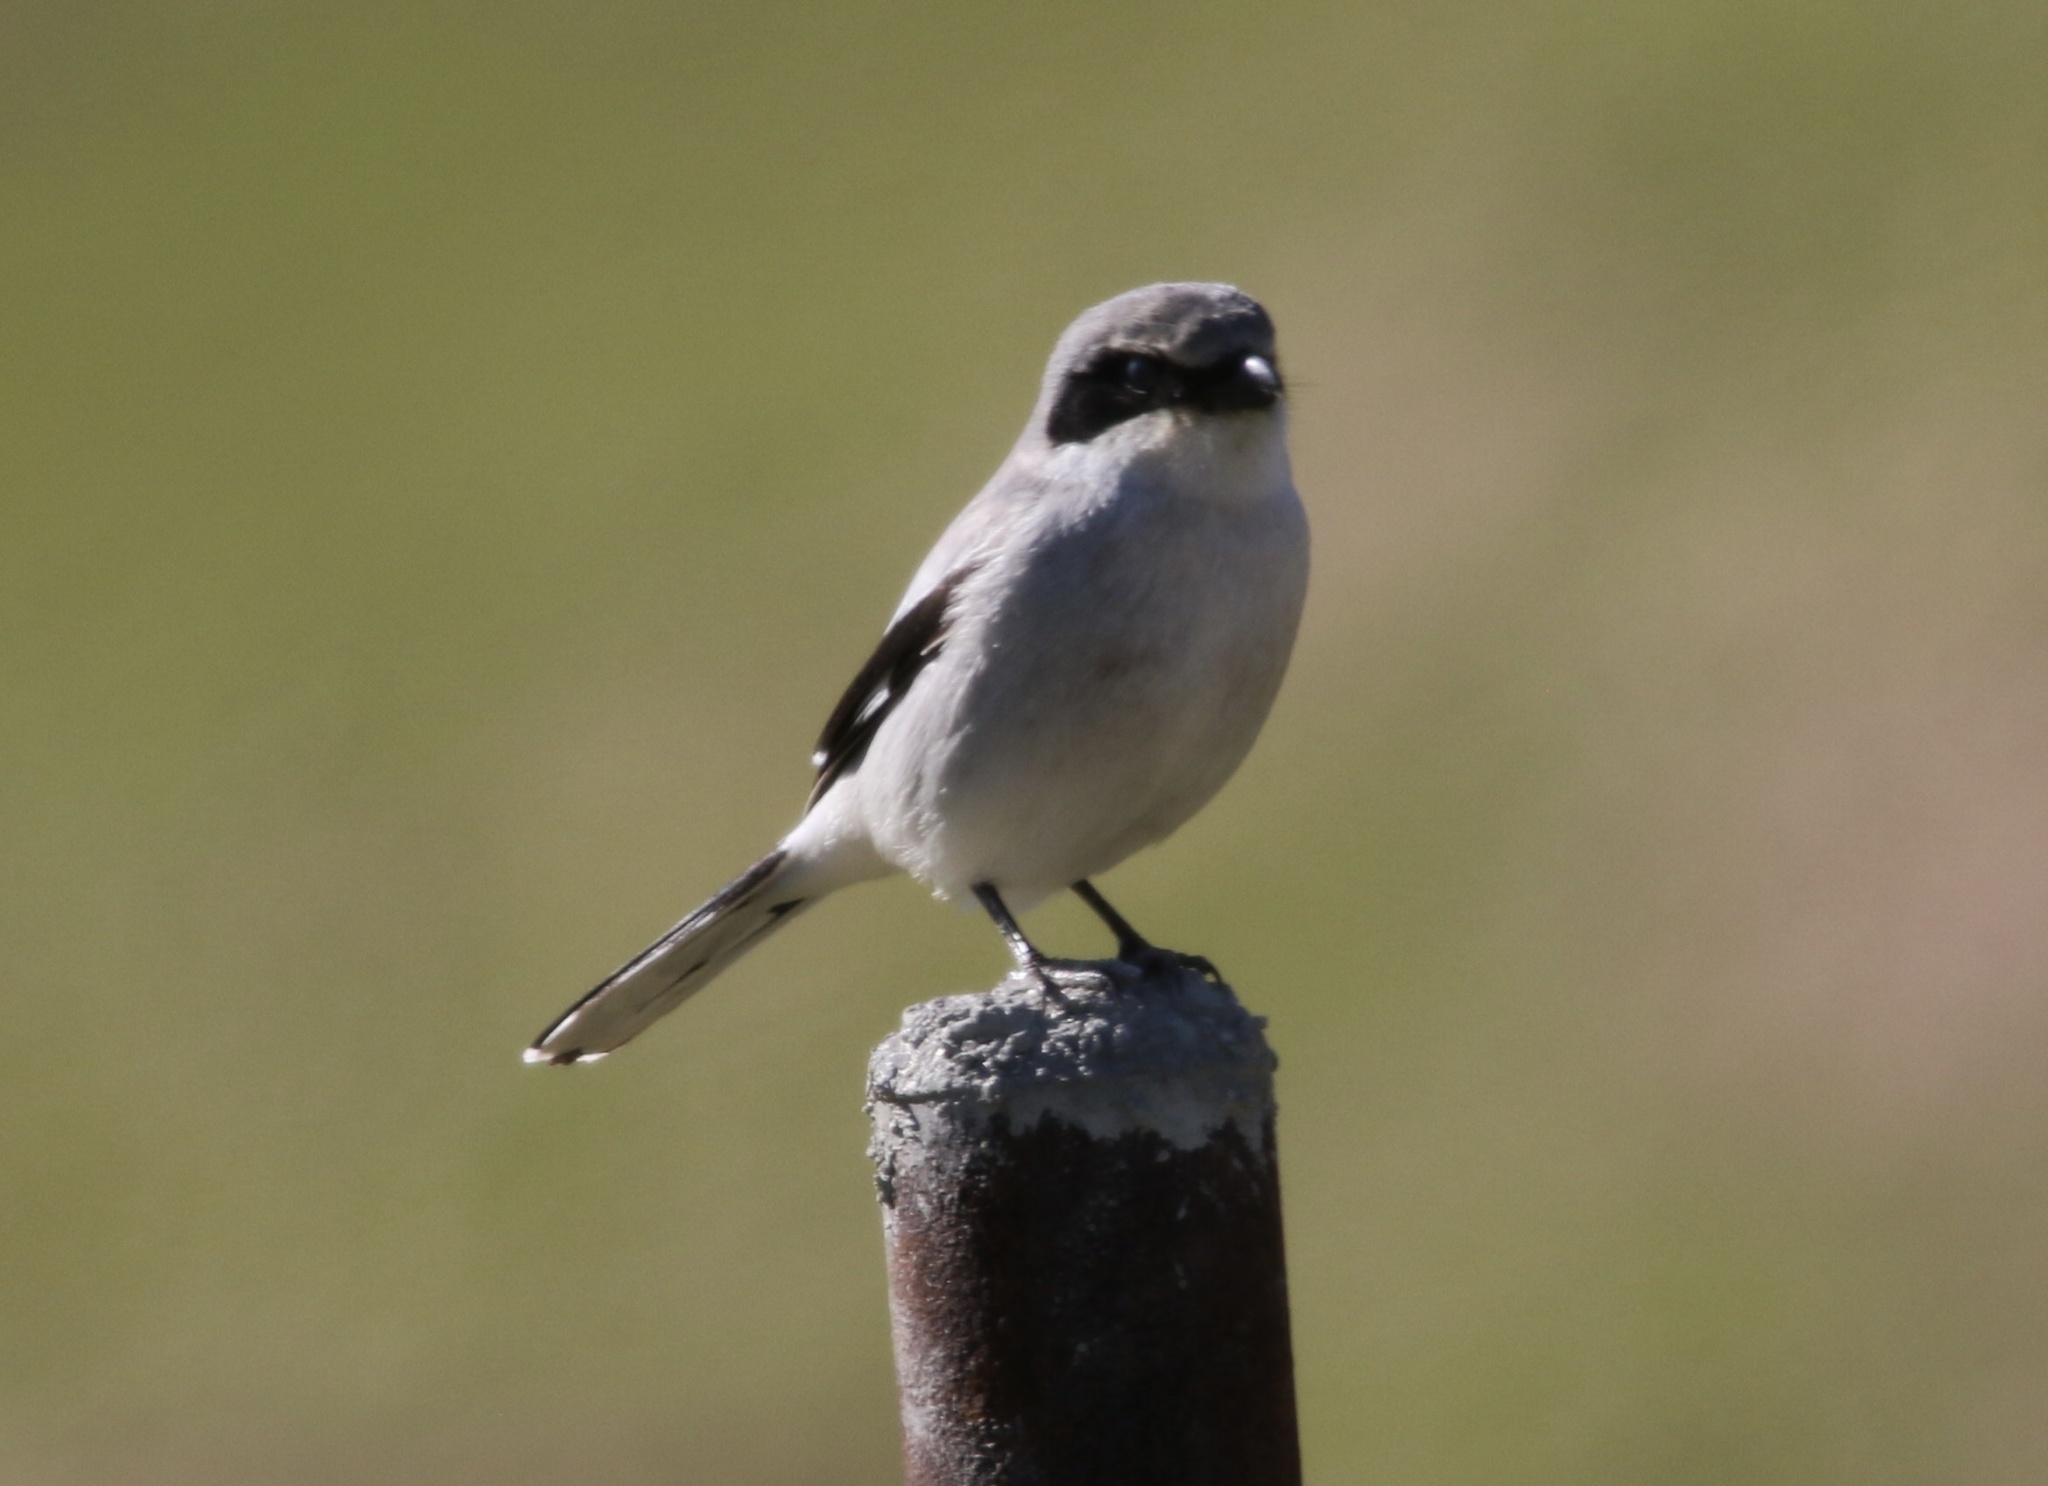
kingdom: Animalia
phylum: Chordata
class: Aves
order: Passeriformes
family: Laniidae
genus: Lanius
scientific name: Lanius ludovicianus
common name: Loggerhead shrike
